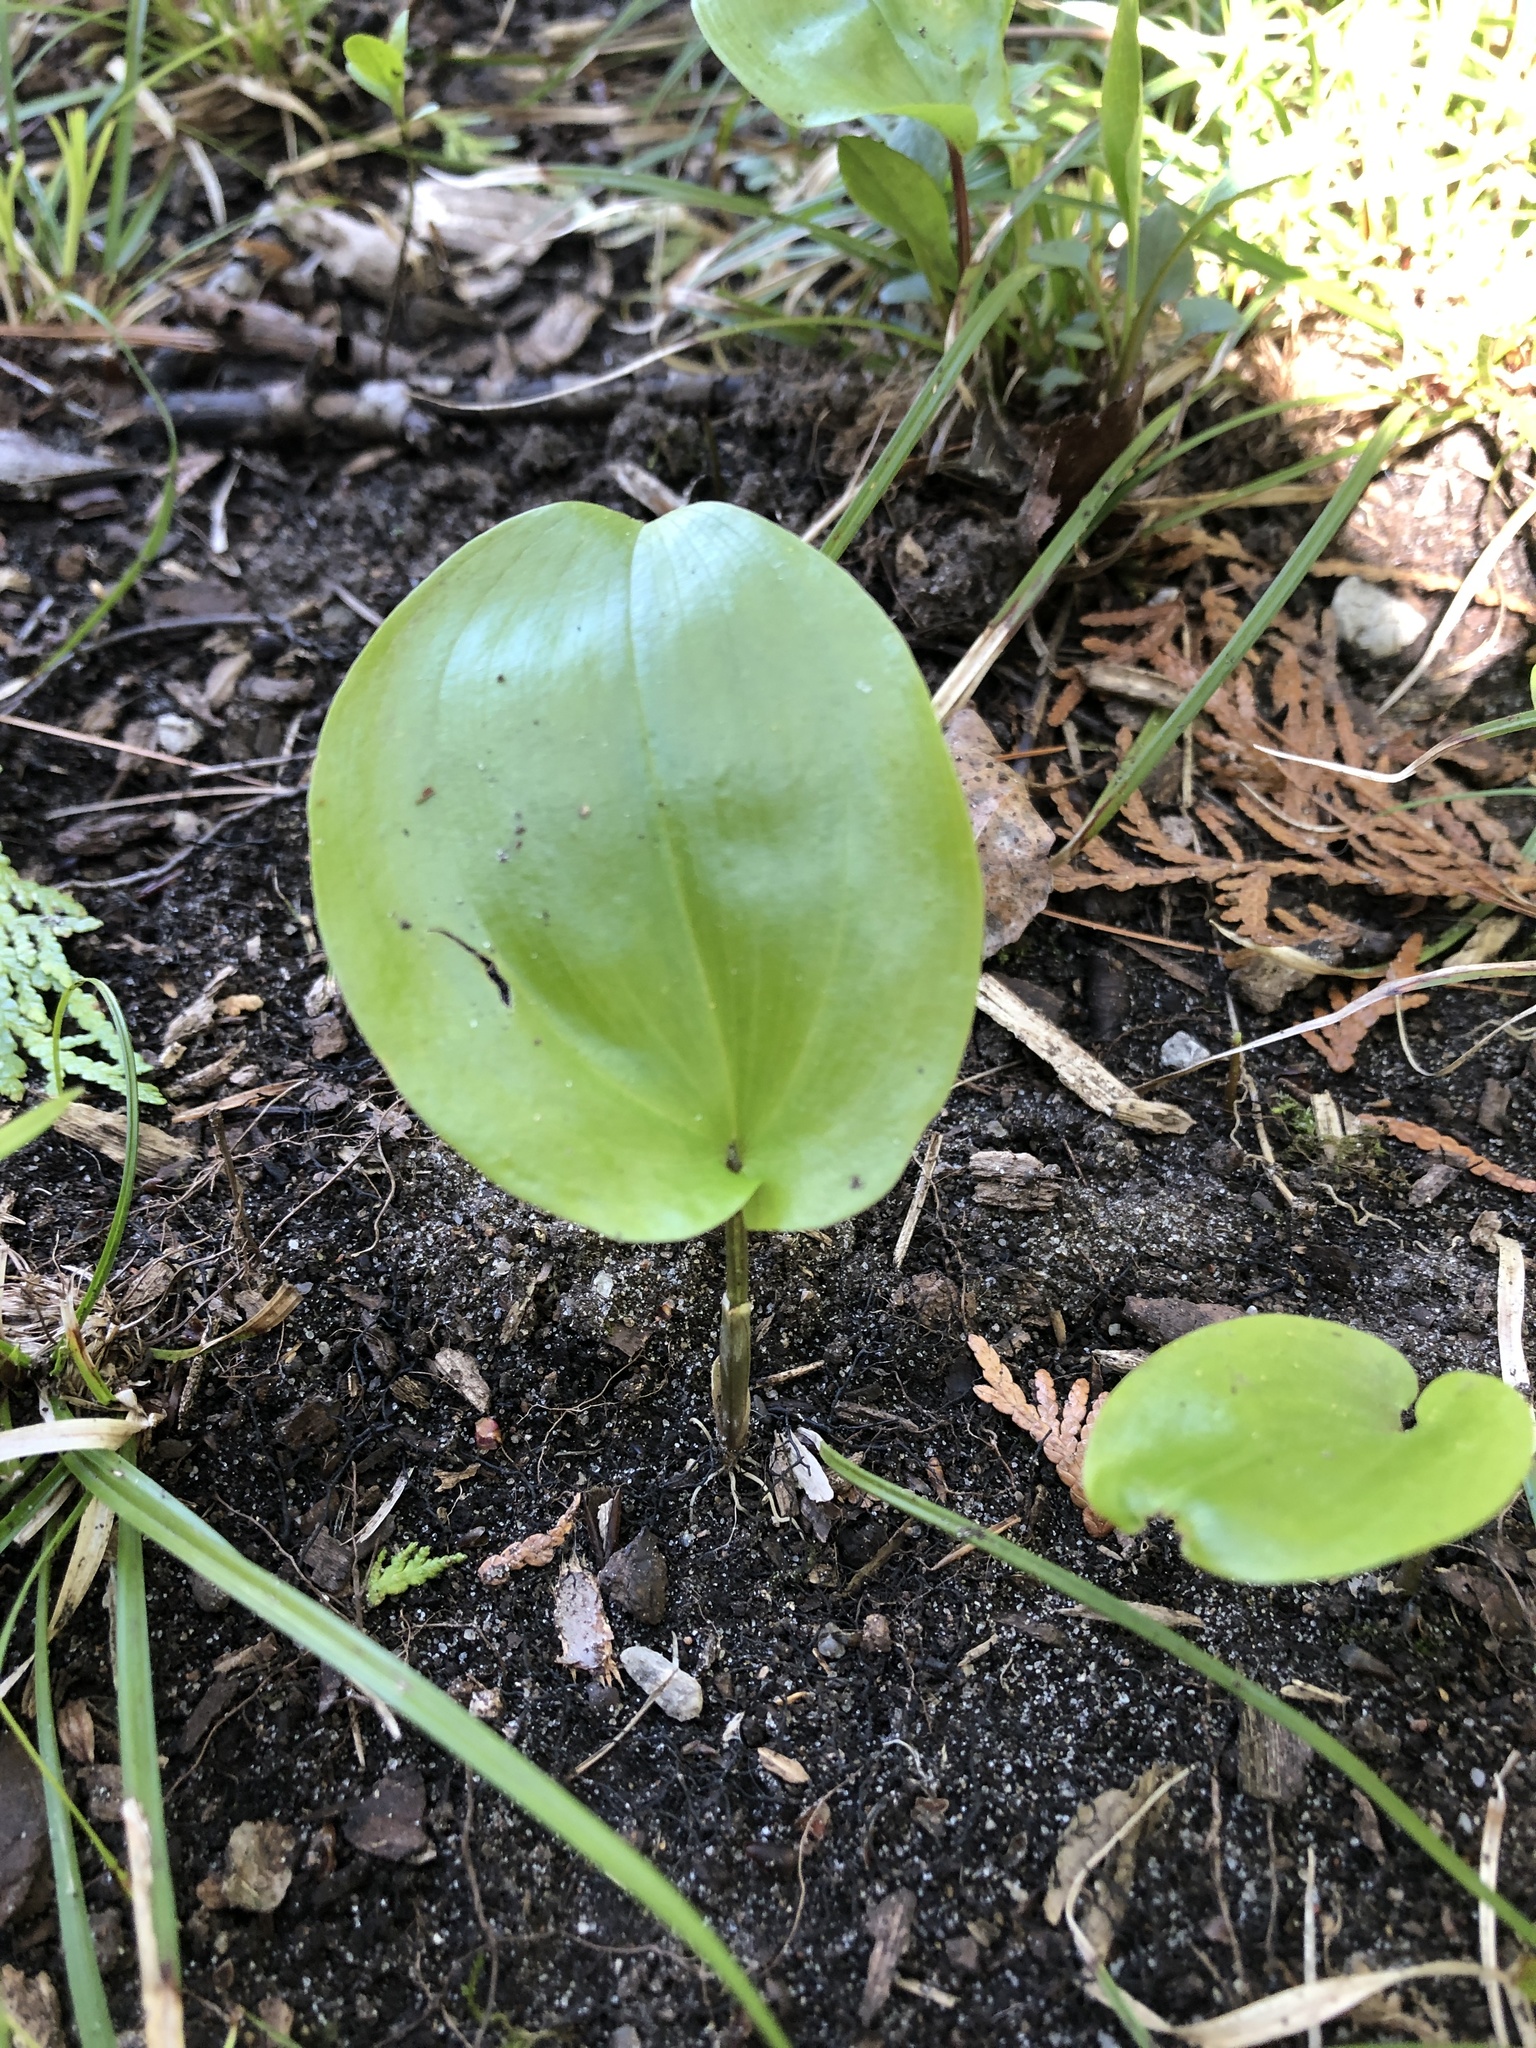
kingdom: Plantae
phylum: Tracheophyta
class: Liliopsida
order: Asparagales
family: Asparagaceae
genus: Maianthemum
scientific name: Maianthemum canadense
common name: False lily-of-the-valley
